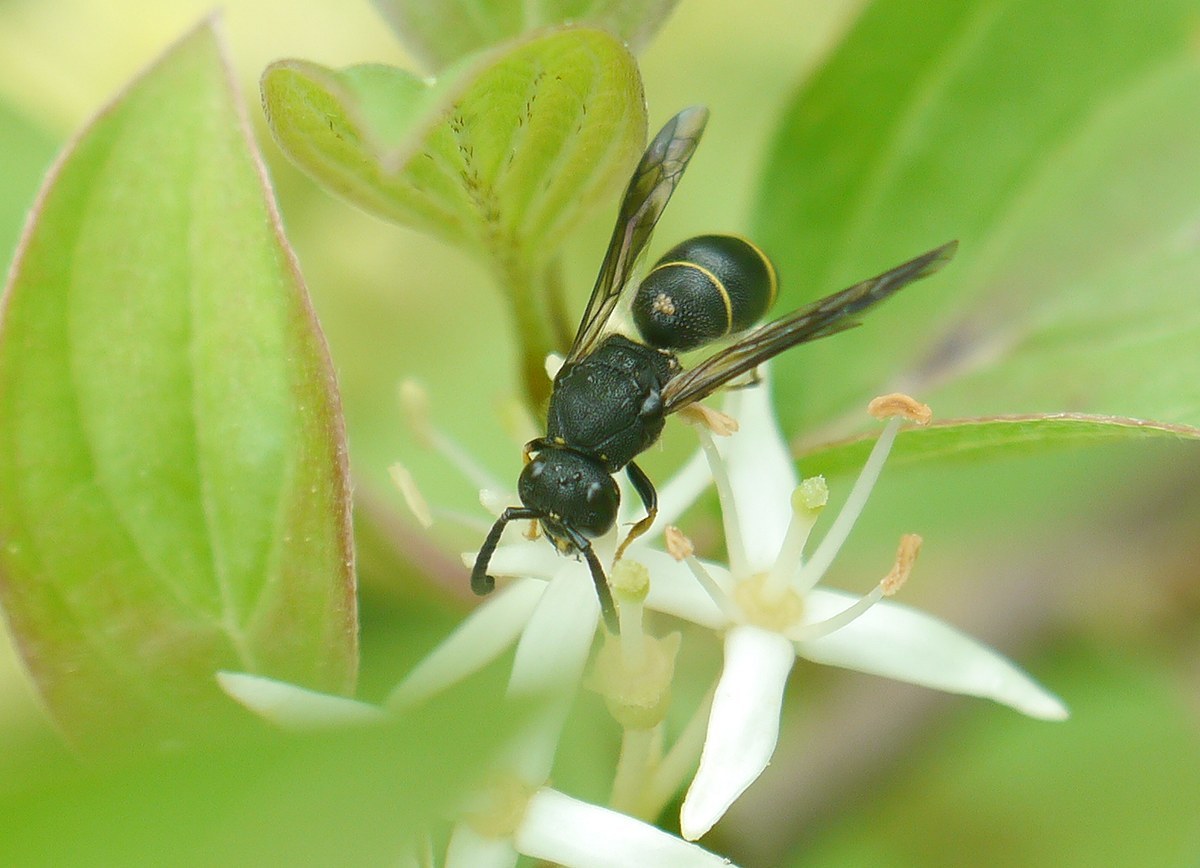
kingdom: Animalia
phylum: Arthropoda
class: Insecta
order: Hymenoptera
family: Eumenidae
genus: Allodynerus
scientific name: Allodynerus
